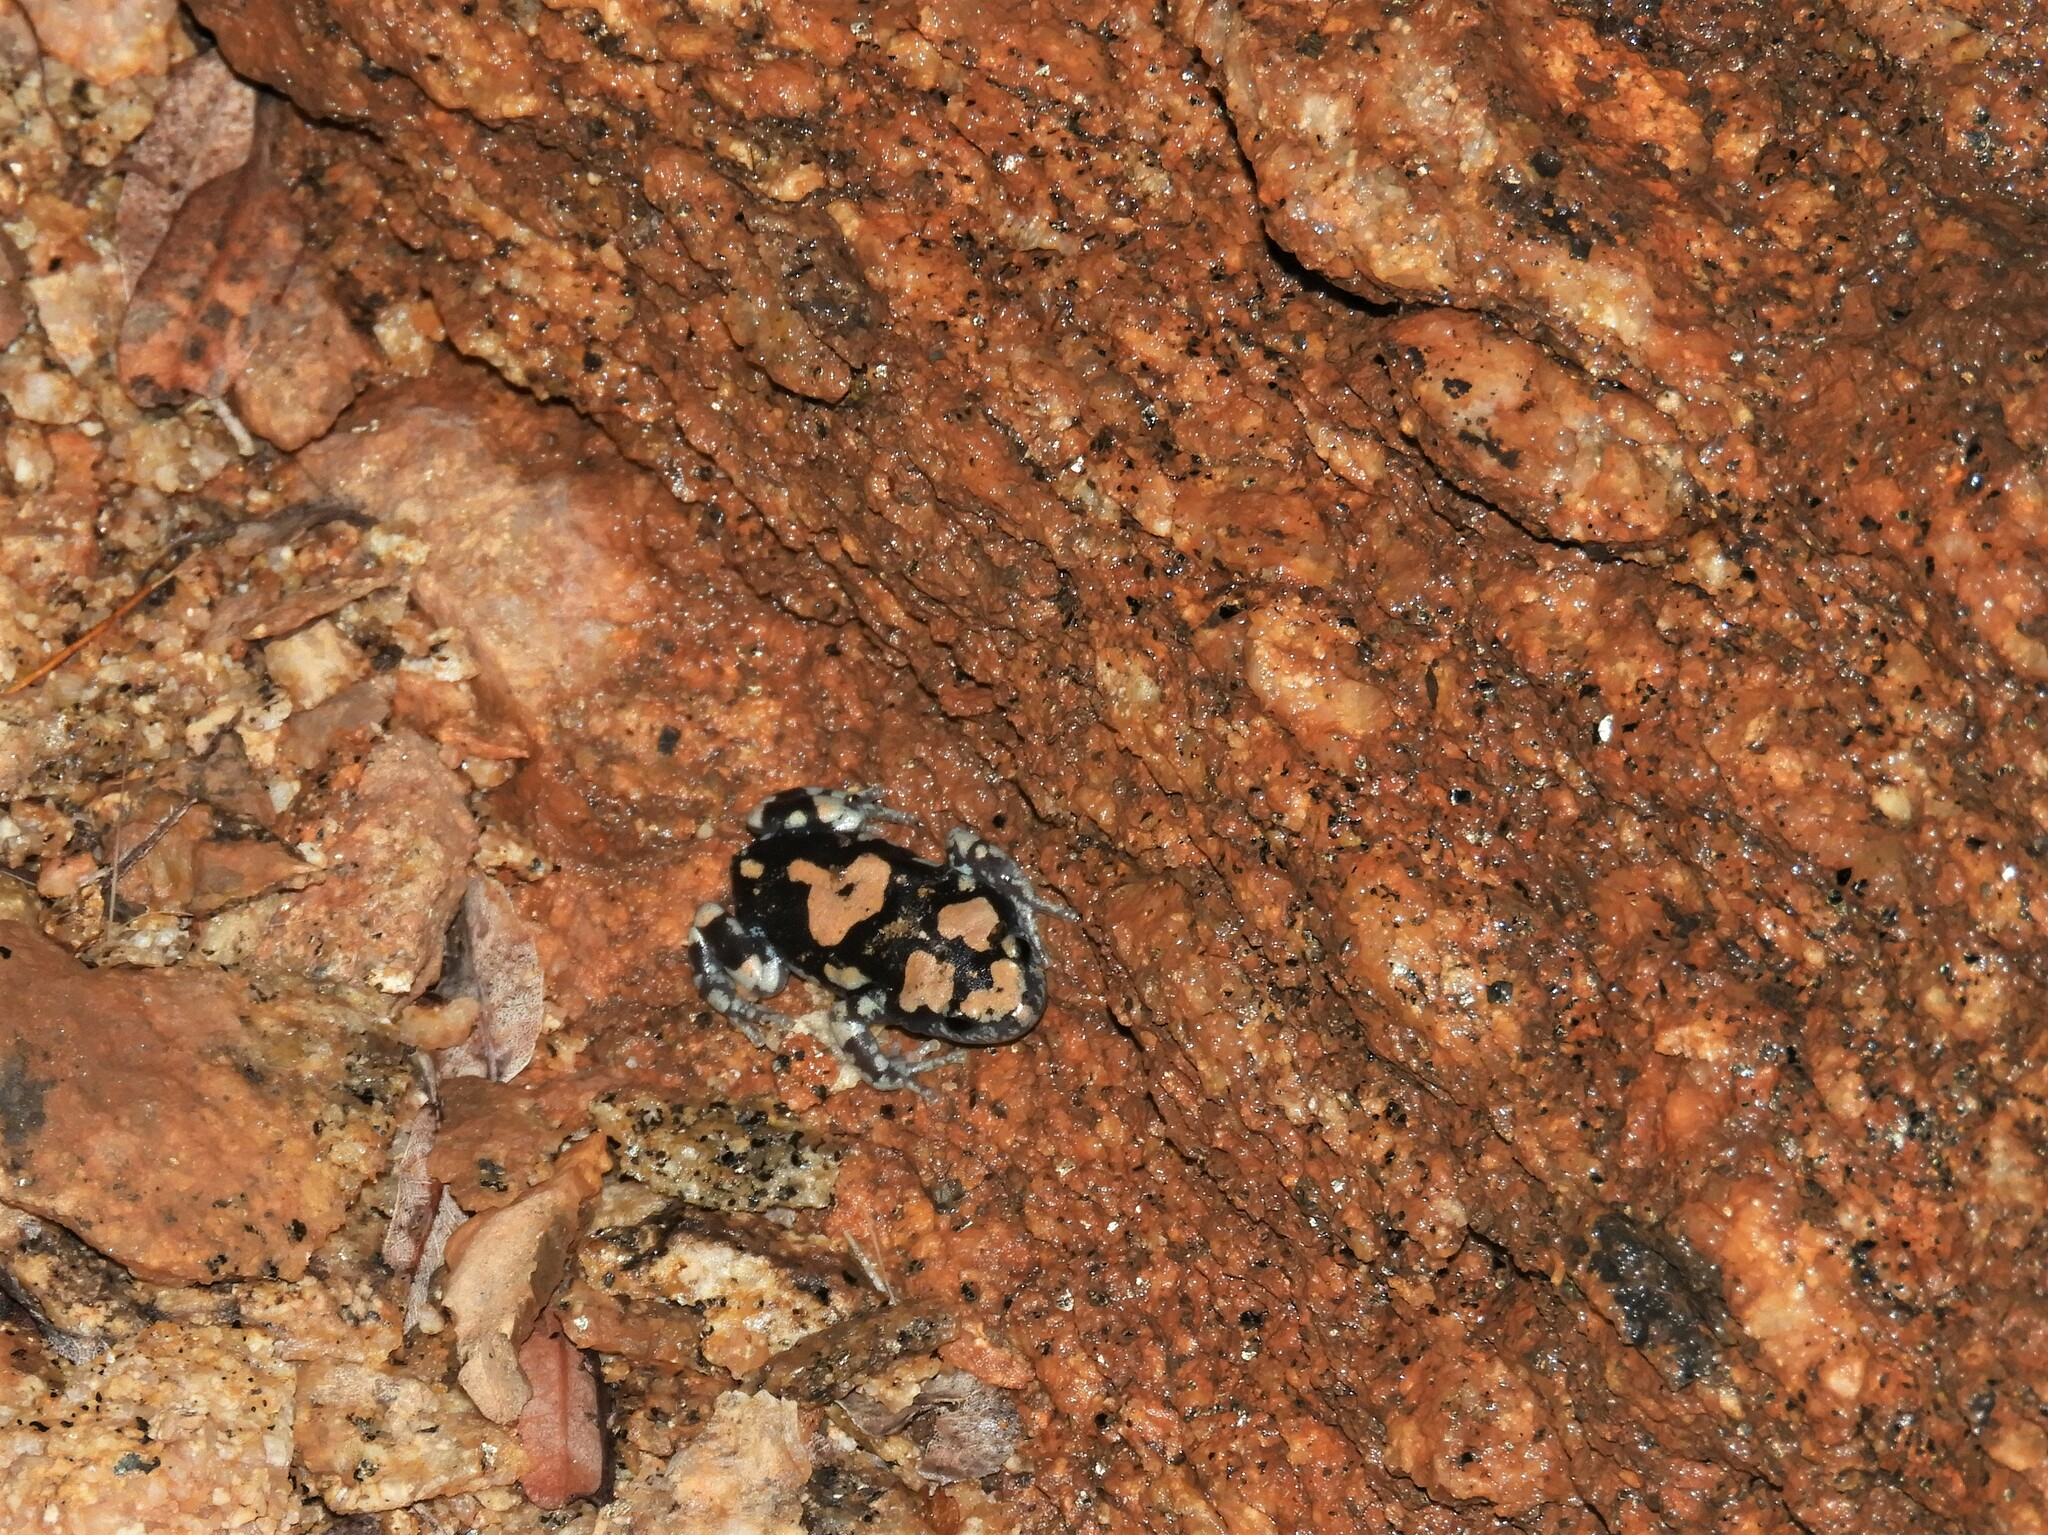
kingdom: Animalia
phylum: Chordata
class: Amphibia
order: Anura
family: Microhylidae
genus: Phrynomantis
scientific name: Phrynomantis annectens
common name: Marbled rubber frog
